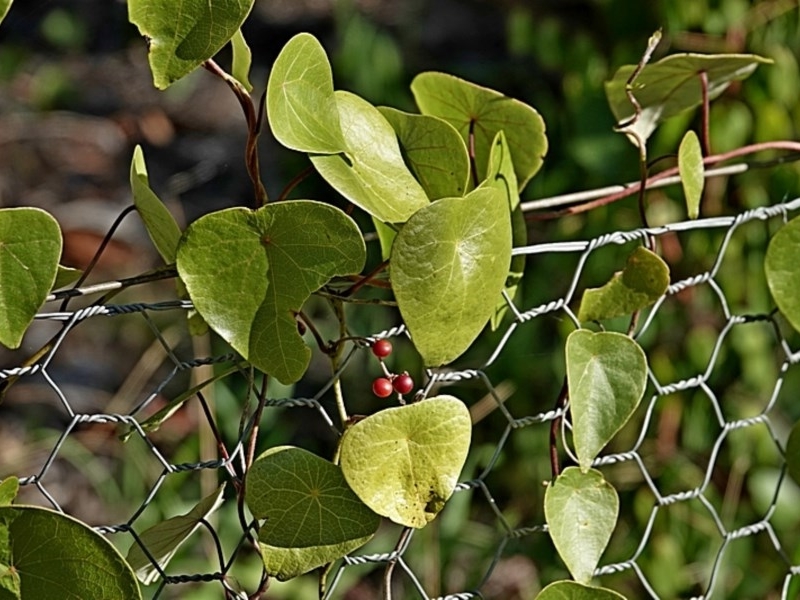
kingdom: Plantae
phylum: Tracheophyta
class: Magnoliopsida
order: Ranunculales
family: Menispermaceae
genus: Stephania
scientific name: Stephania japonica
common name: Snake vine
